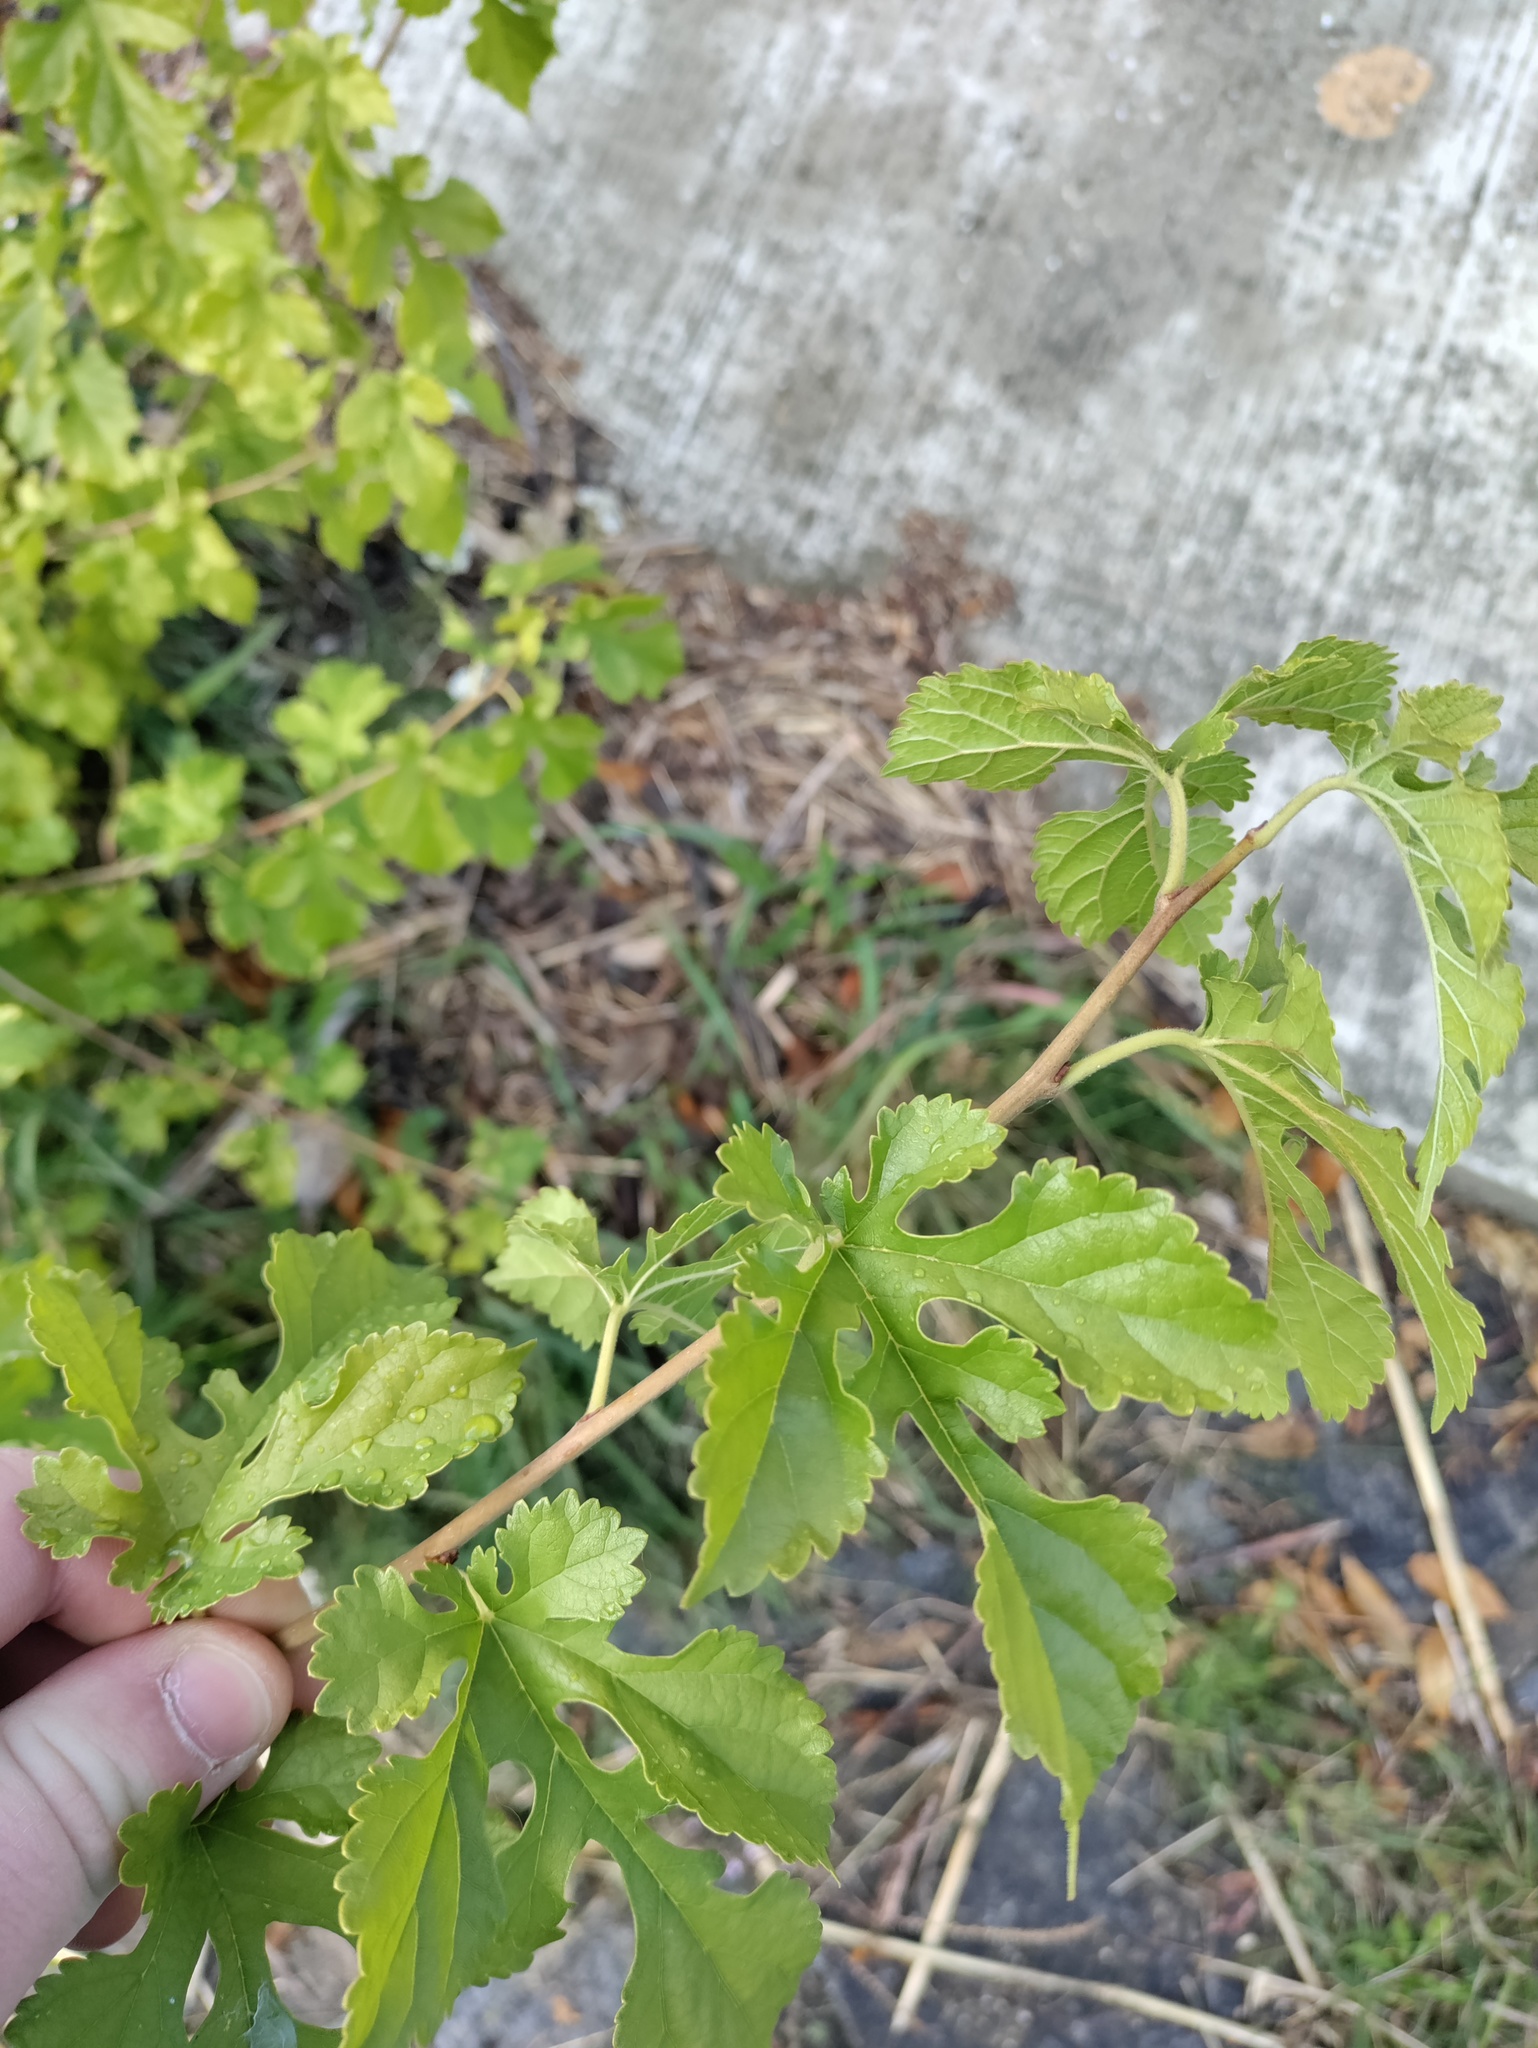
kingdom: Plantae
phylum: Tracheophyta
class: Magnoliopsida
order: Rosales
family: Moraceae
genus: Morus
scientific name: Morus alba
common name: White mulberry
